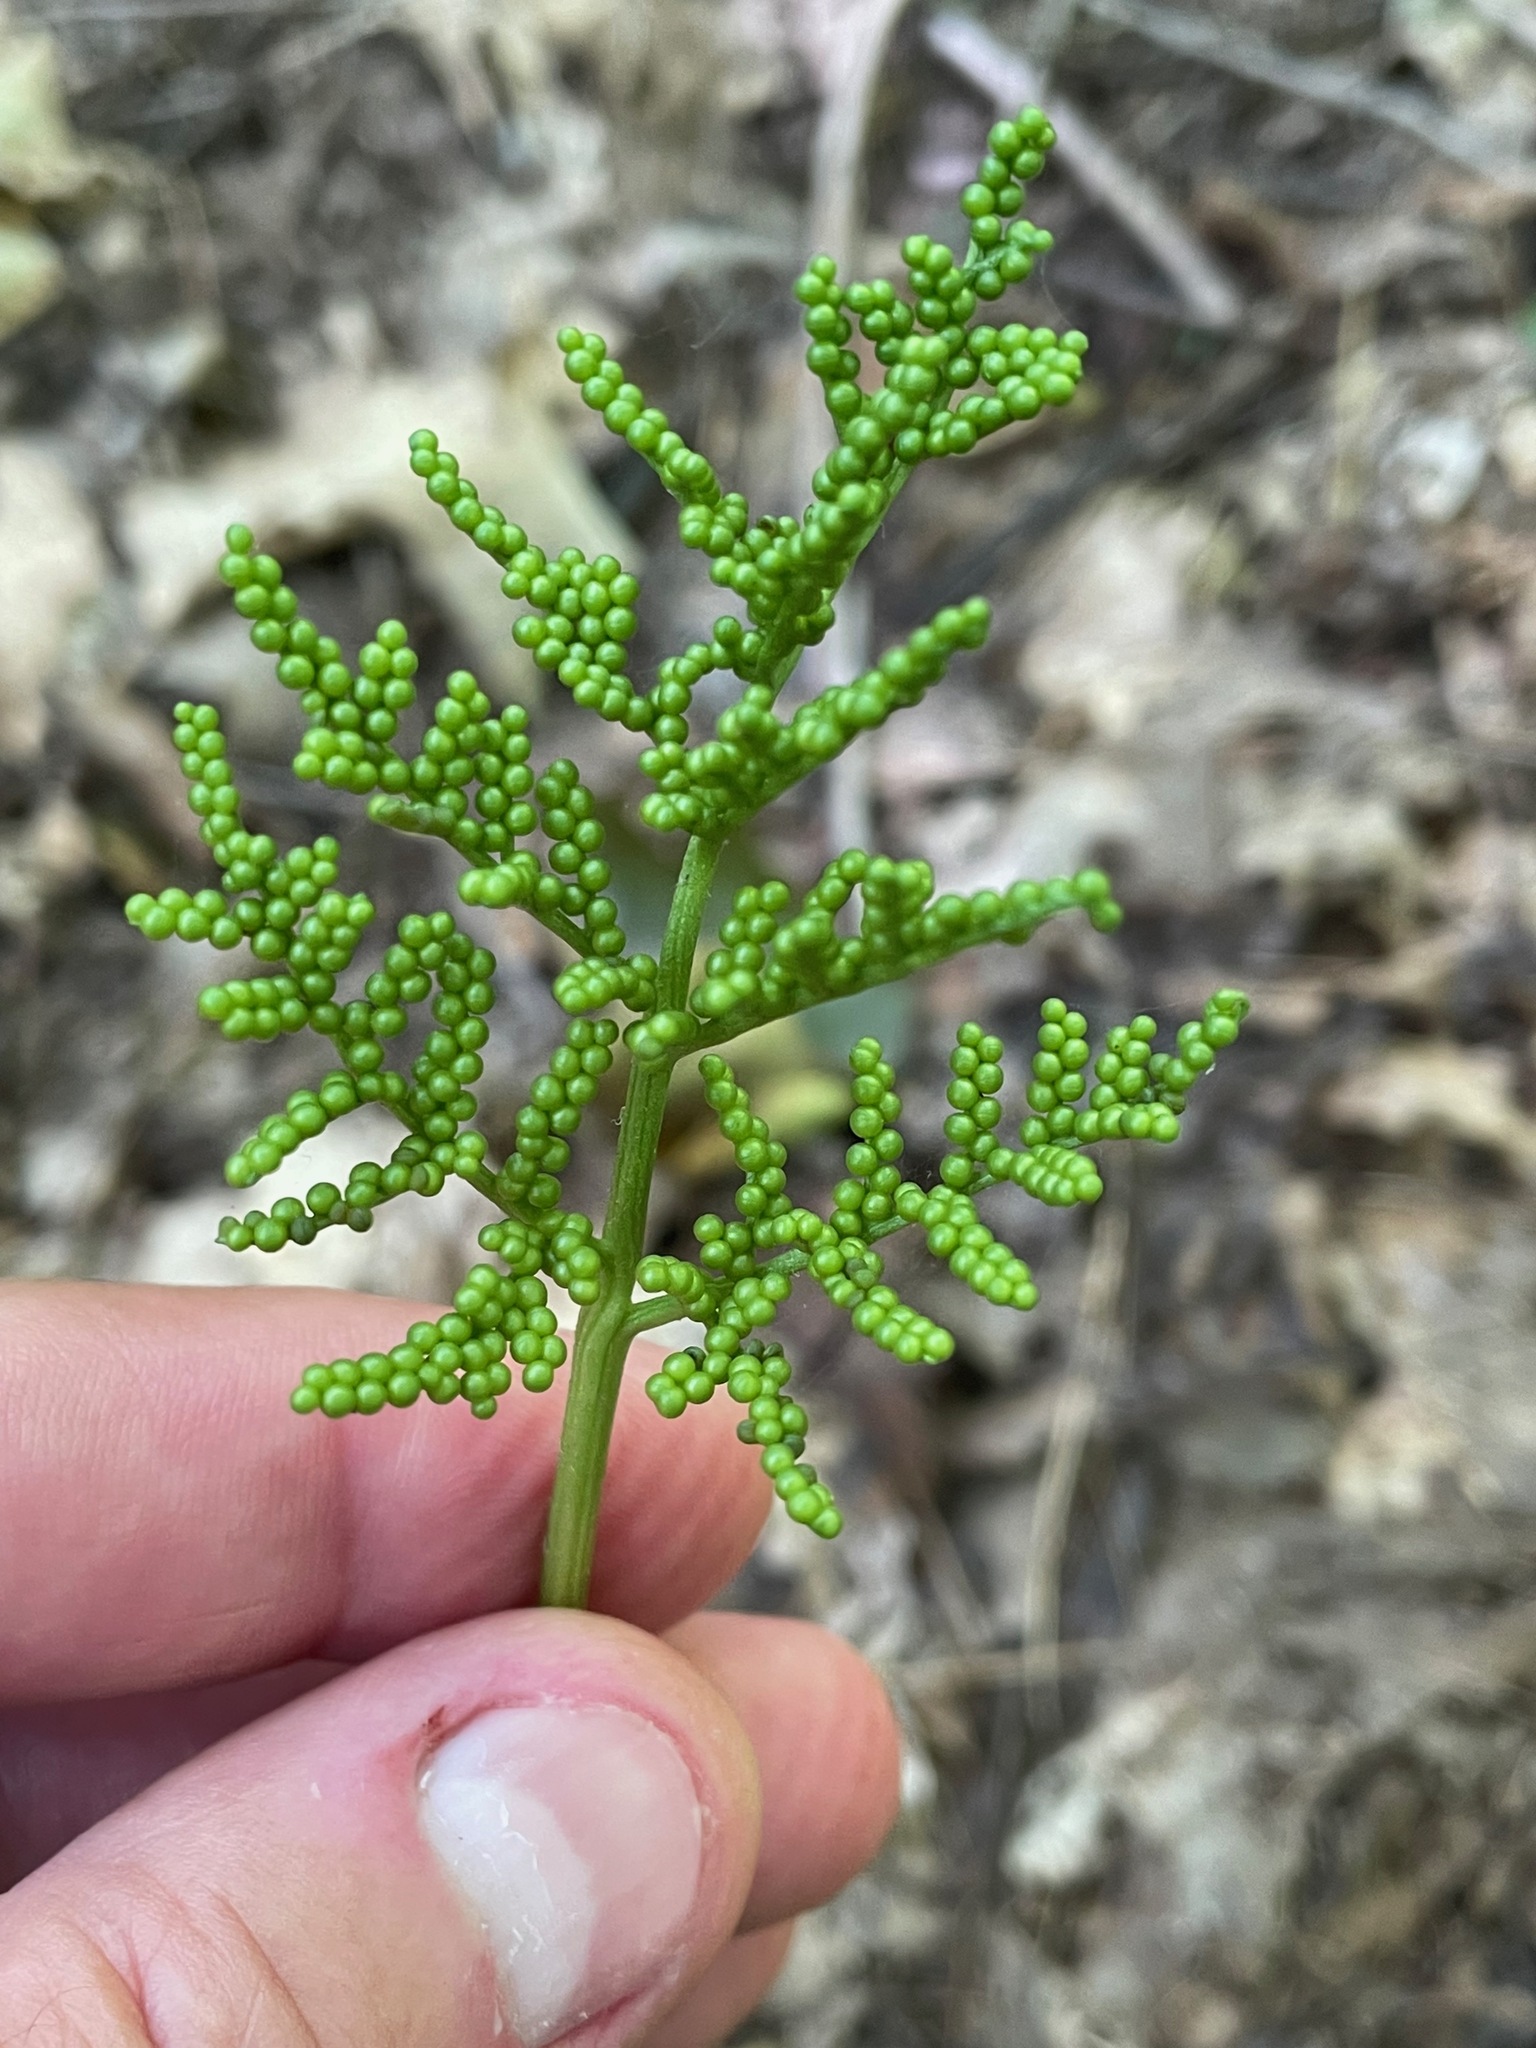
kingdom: Plantae
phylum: Tracheophyta
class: Polypodiopsida
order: Ophioglossales
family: Ophioglossaceae
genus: Sceptridium
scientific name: Sceptridium dissectum
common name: Cut-leaved grapefern
